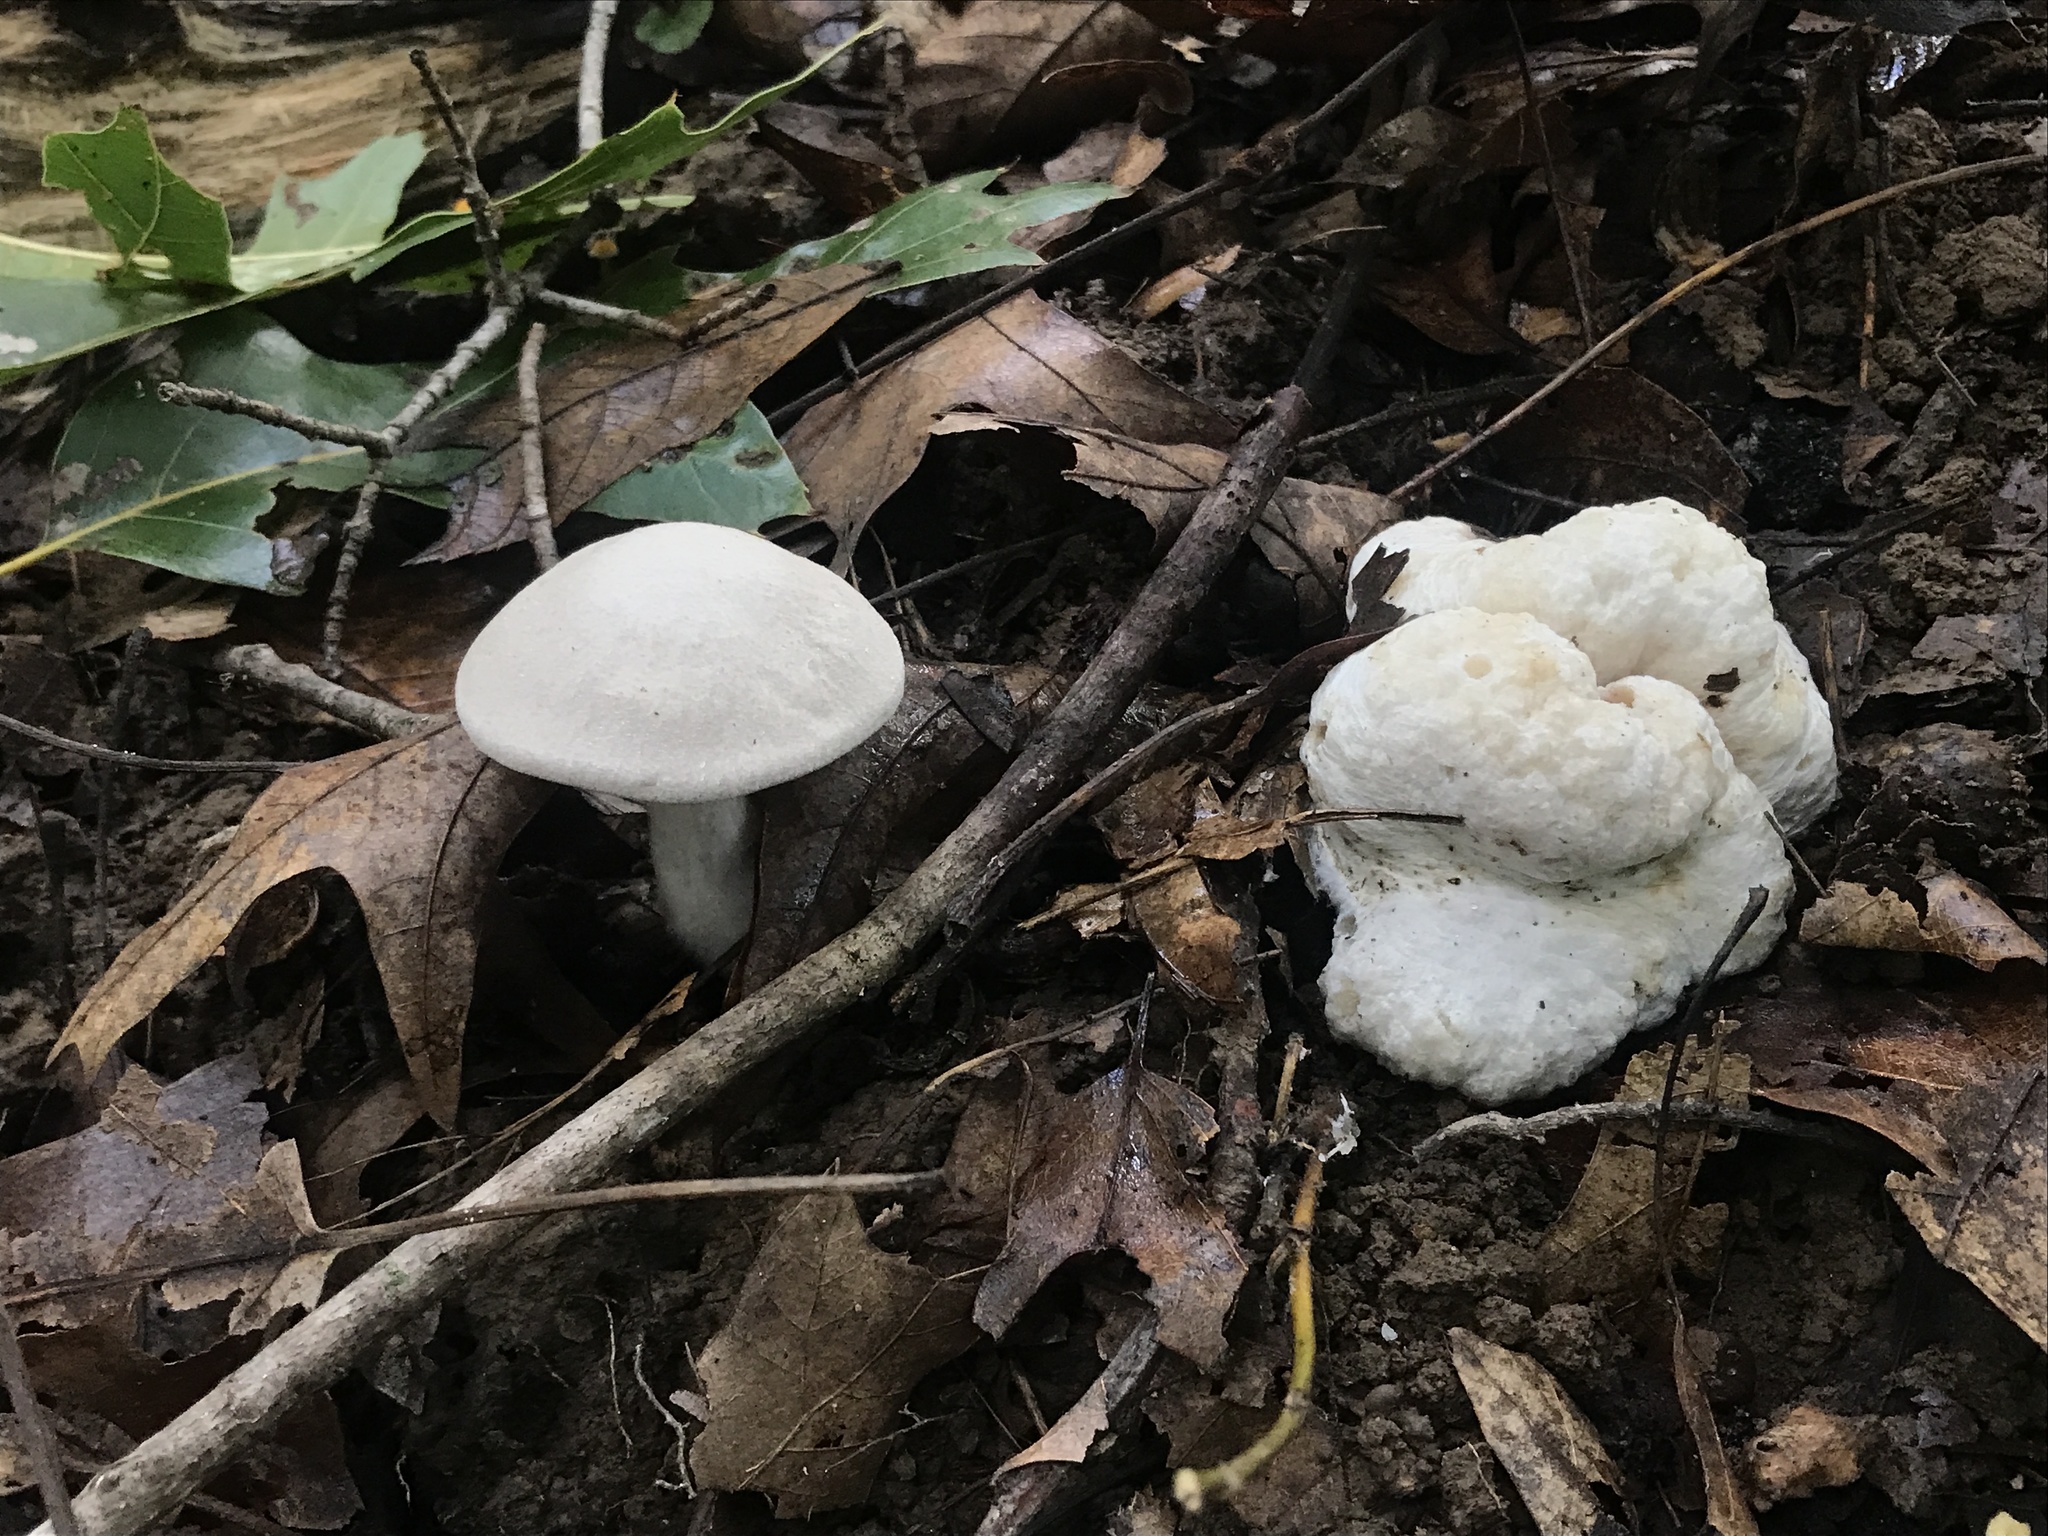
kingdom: Fungi
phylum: Basidiomycota
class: Agaricomycetes
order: Agaricales
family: Entolomataceae
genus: Entoloma
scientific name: Entoloma abortivum
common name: Aborted entoloma
